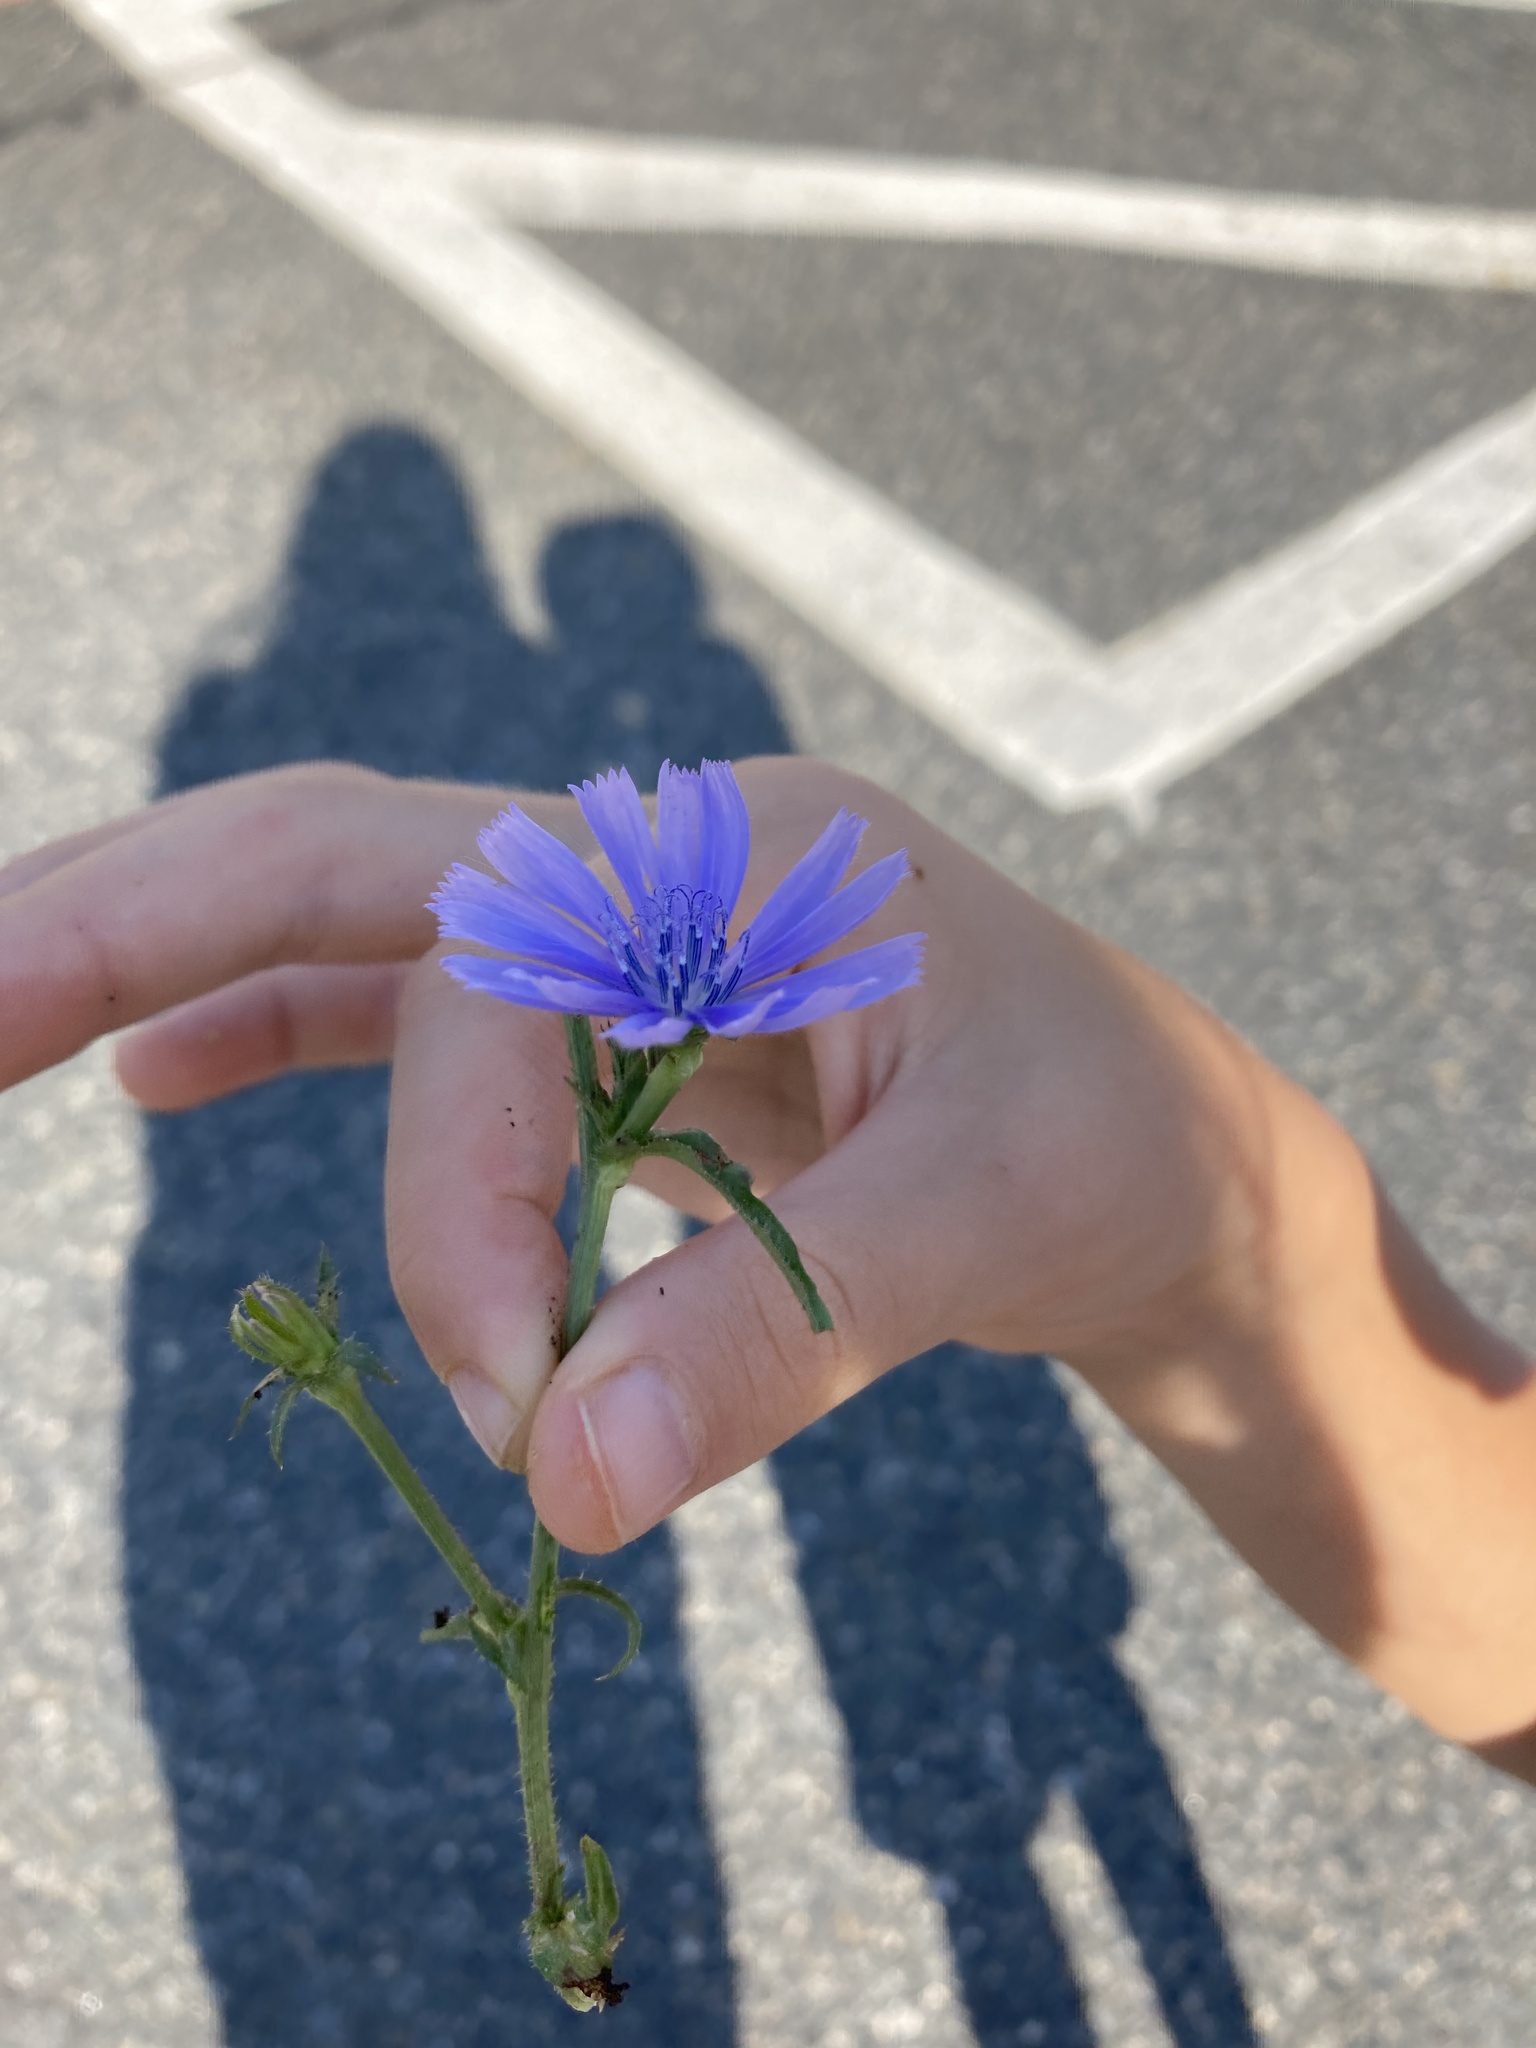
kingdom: Plantae
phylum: Tracheophyta
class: Magnoliopsida
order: Asterales
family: Asteraceae
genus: Cichorium
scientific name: Cichorium intybus
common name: Chicory
